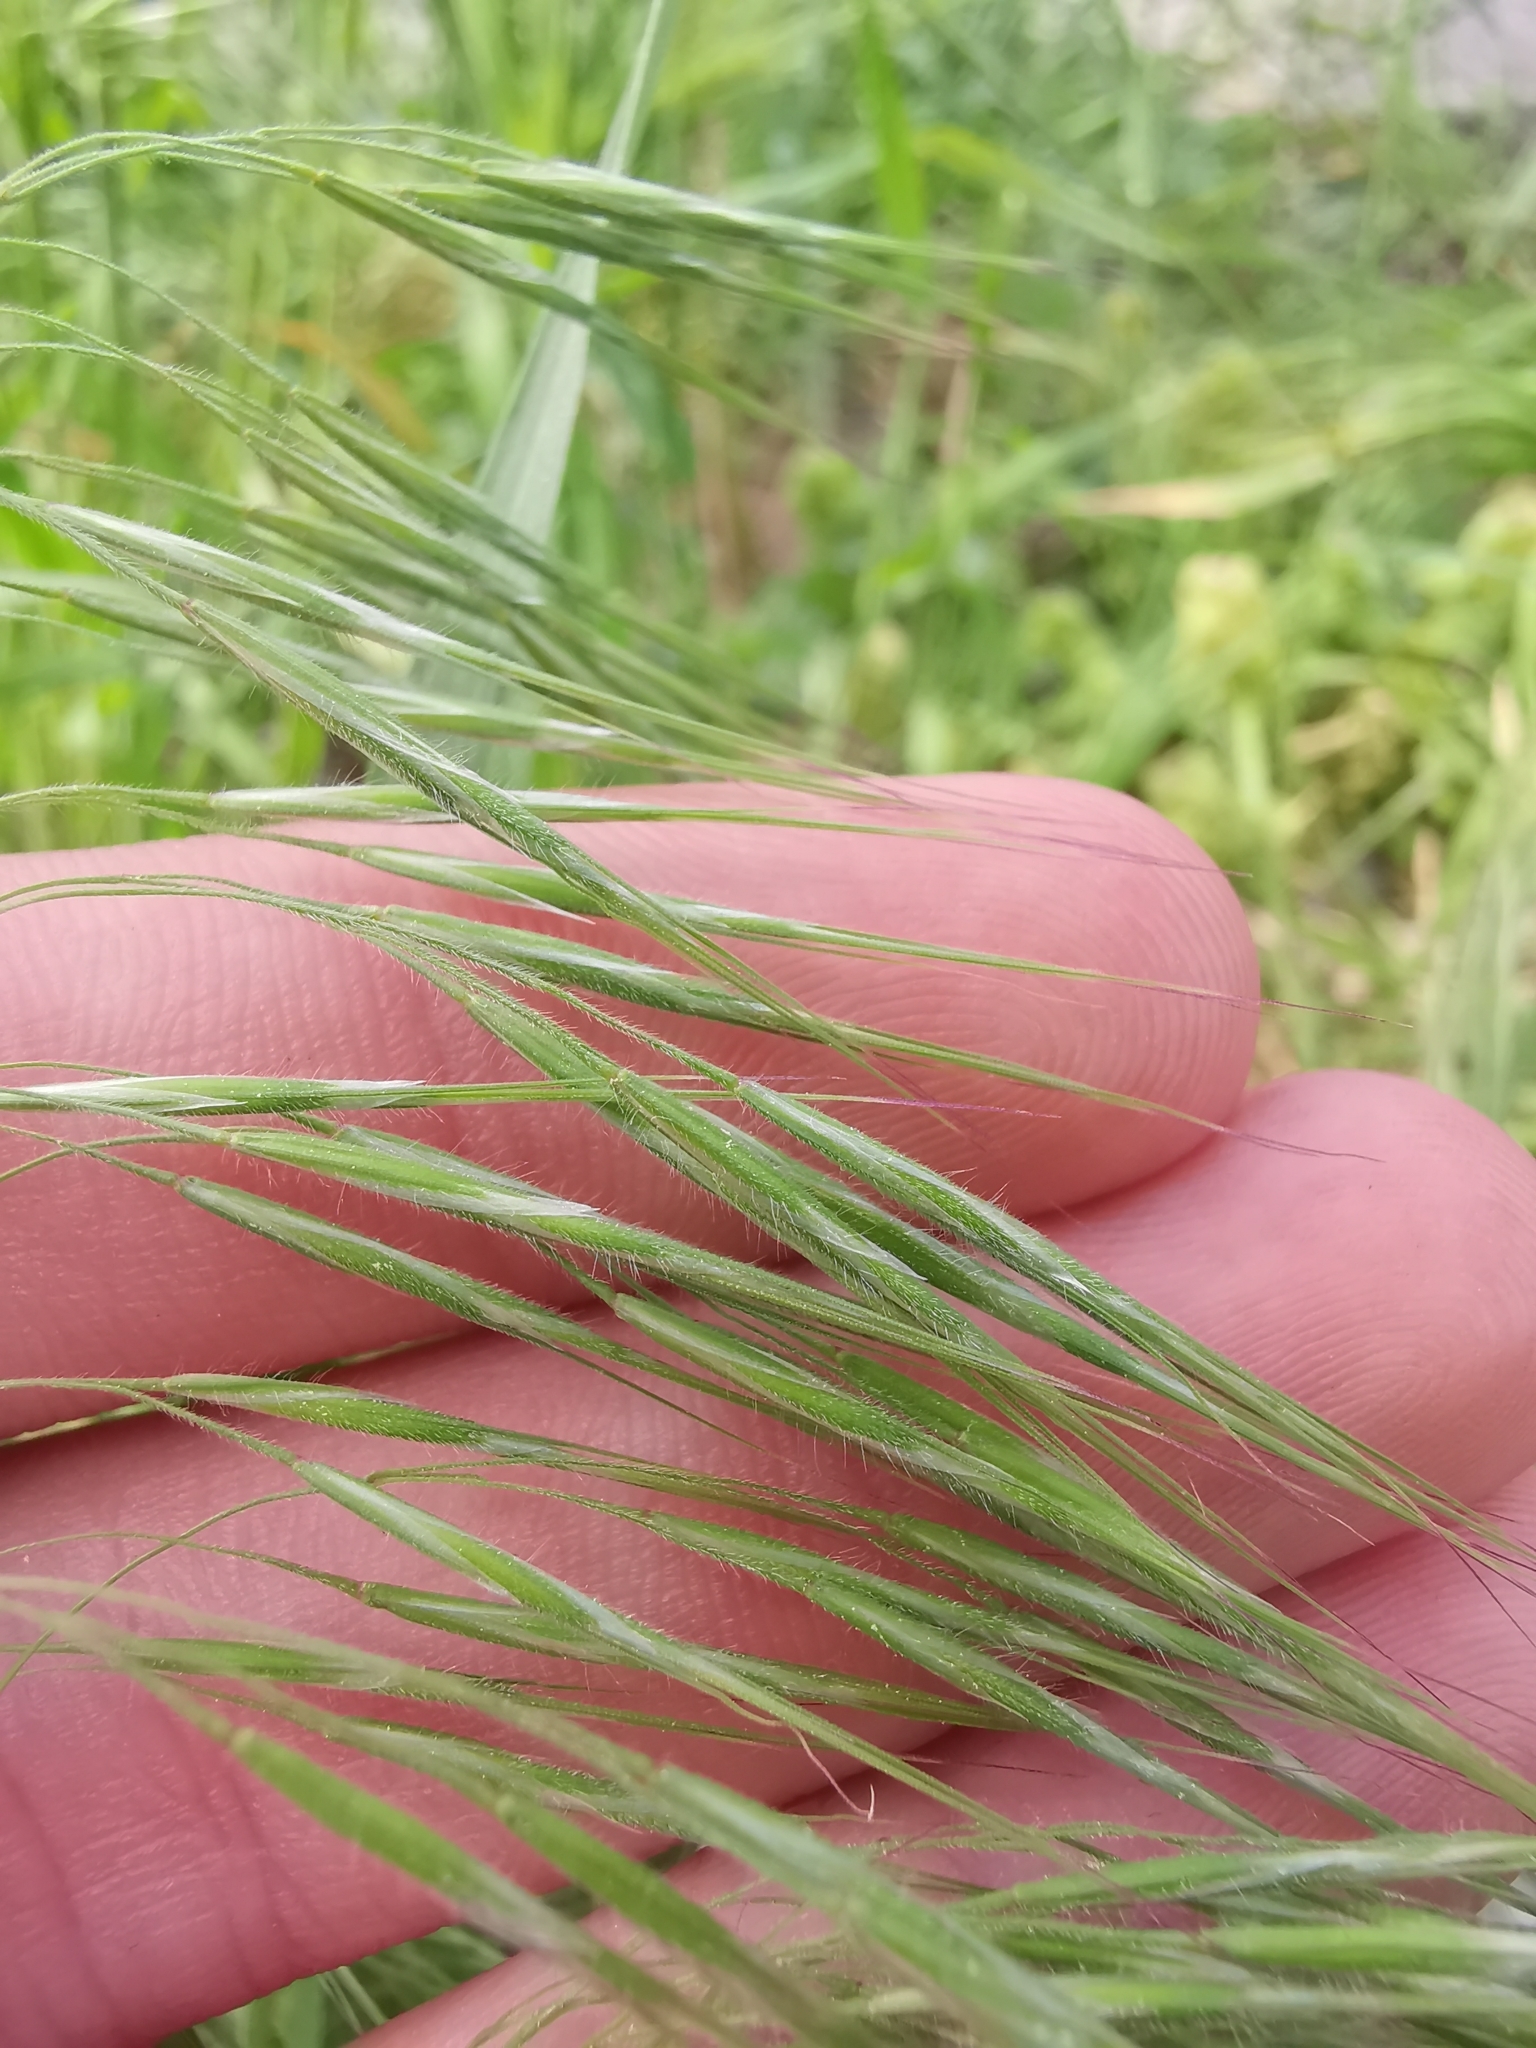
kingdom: Plantae
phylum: Tracheophyta
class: Liliopsida
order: Poales
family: Poaceae
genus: Bromus
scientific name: Bromus tectorum
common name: Cheatgrass
